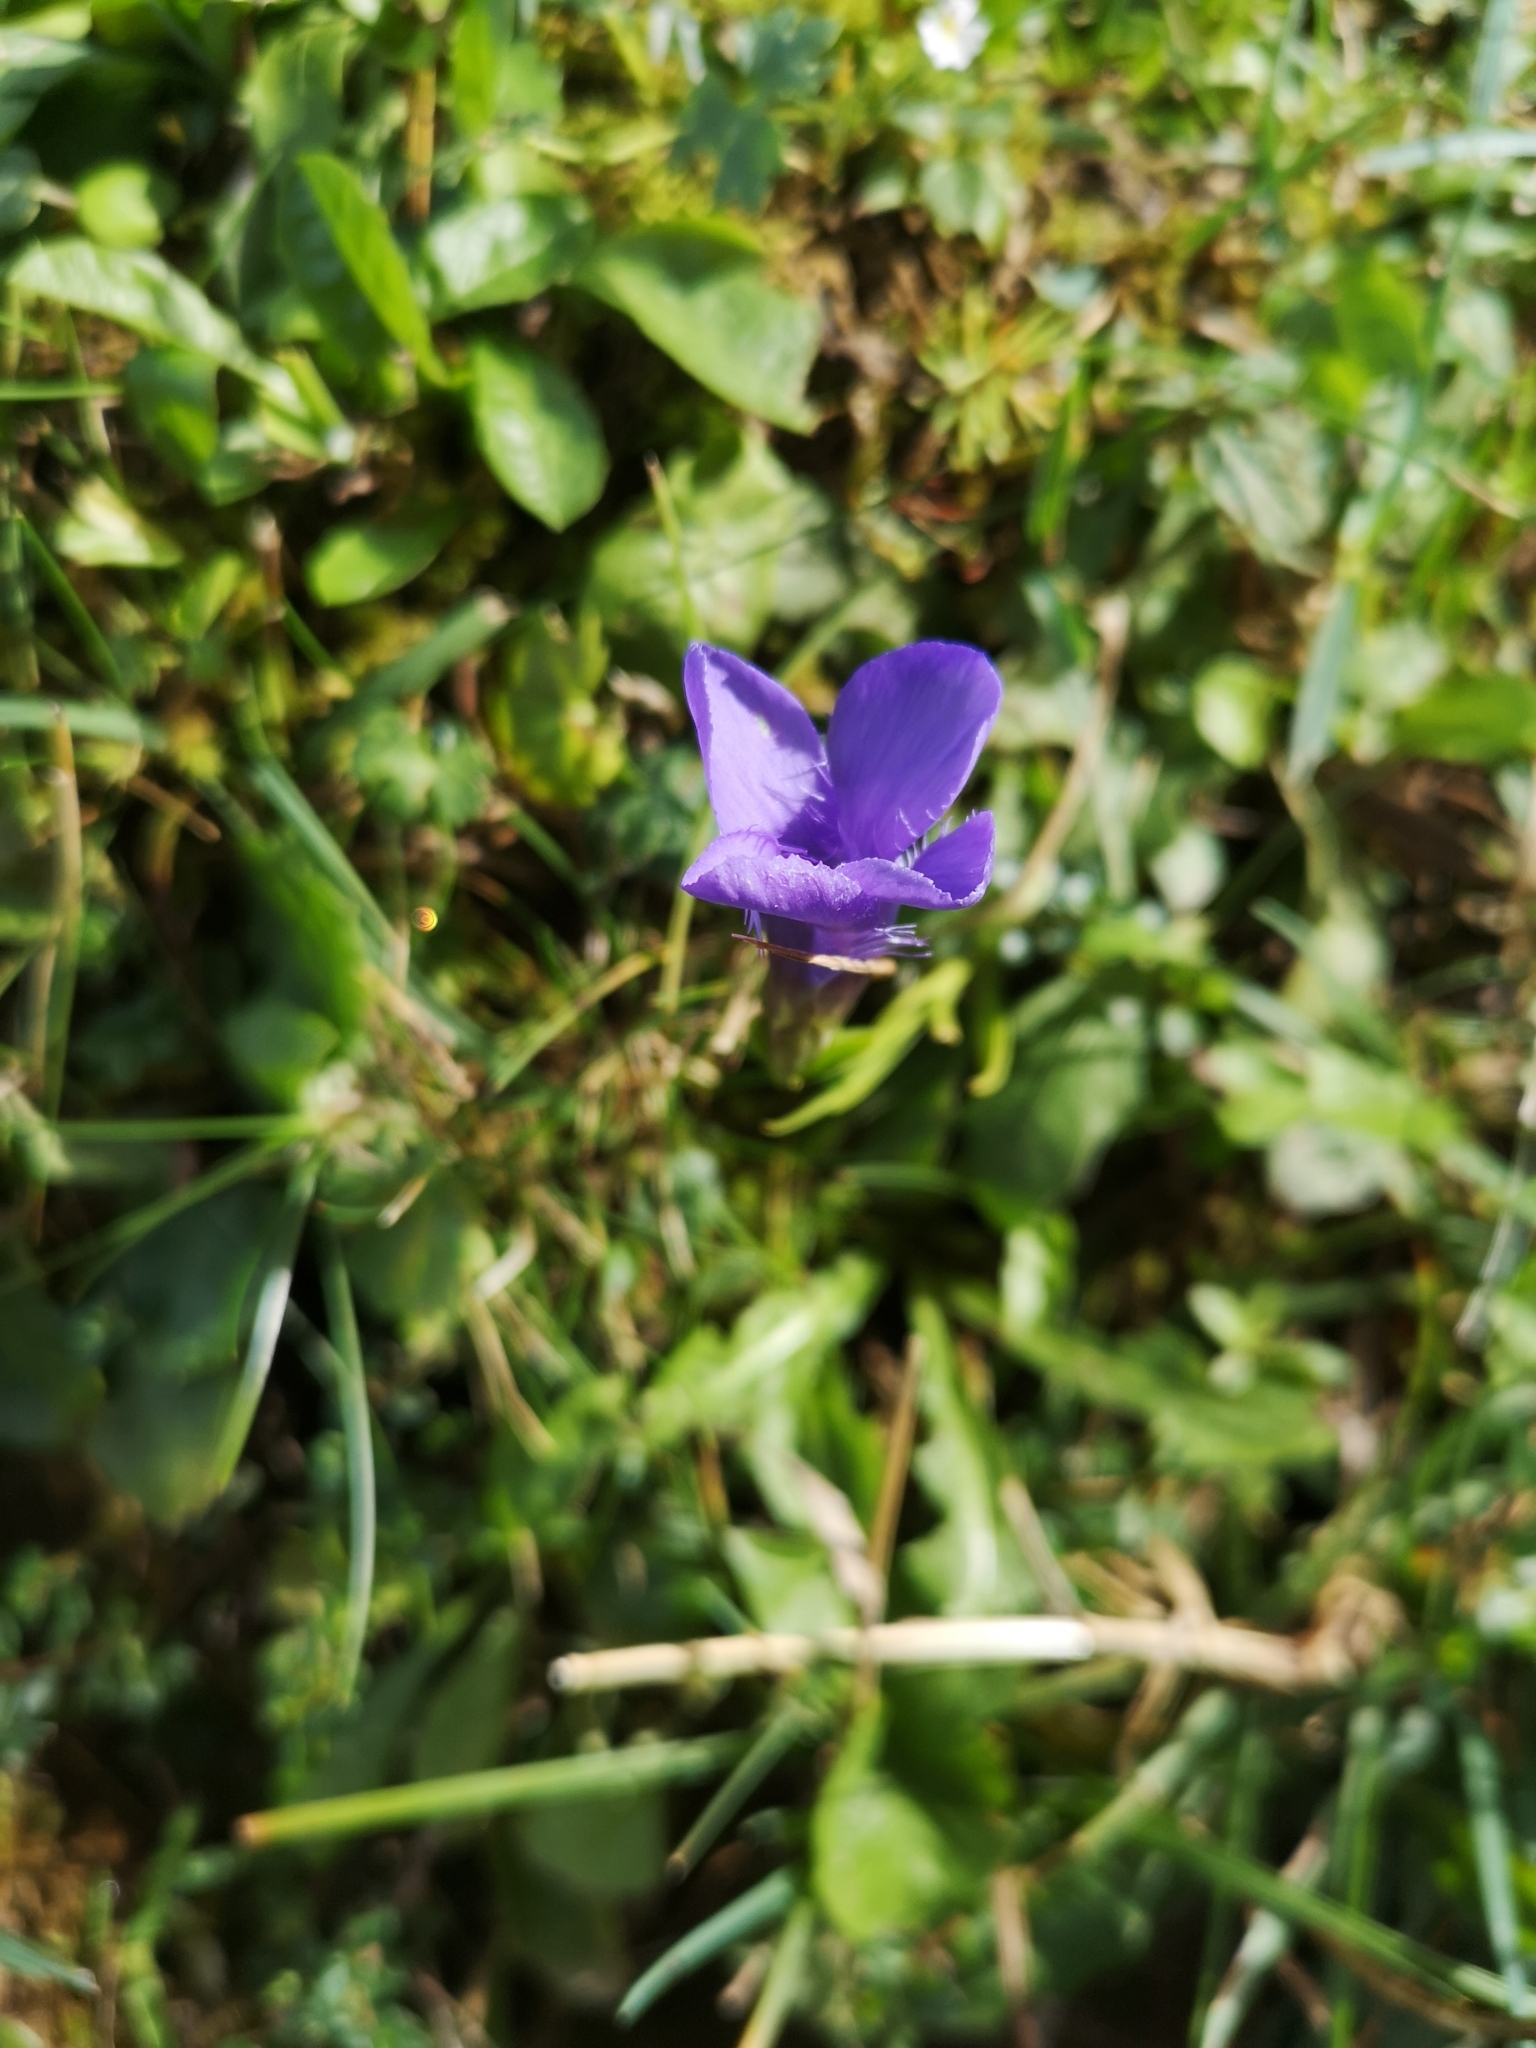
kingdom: Plantae
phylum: Tracheophyta
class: Magnoliopsida
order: Gentianales
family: Gentianaceae
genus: Gentianopsis
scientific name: Gentianopsis ciliata
